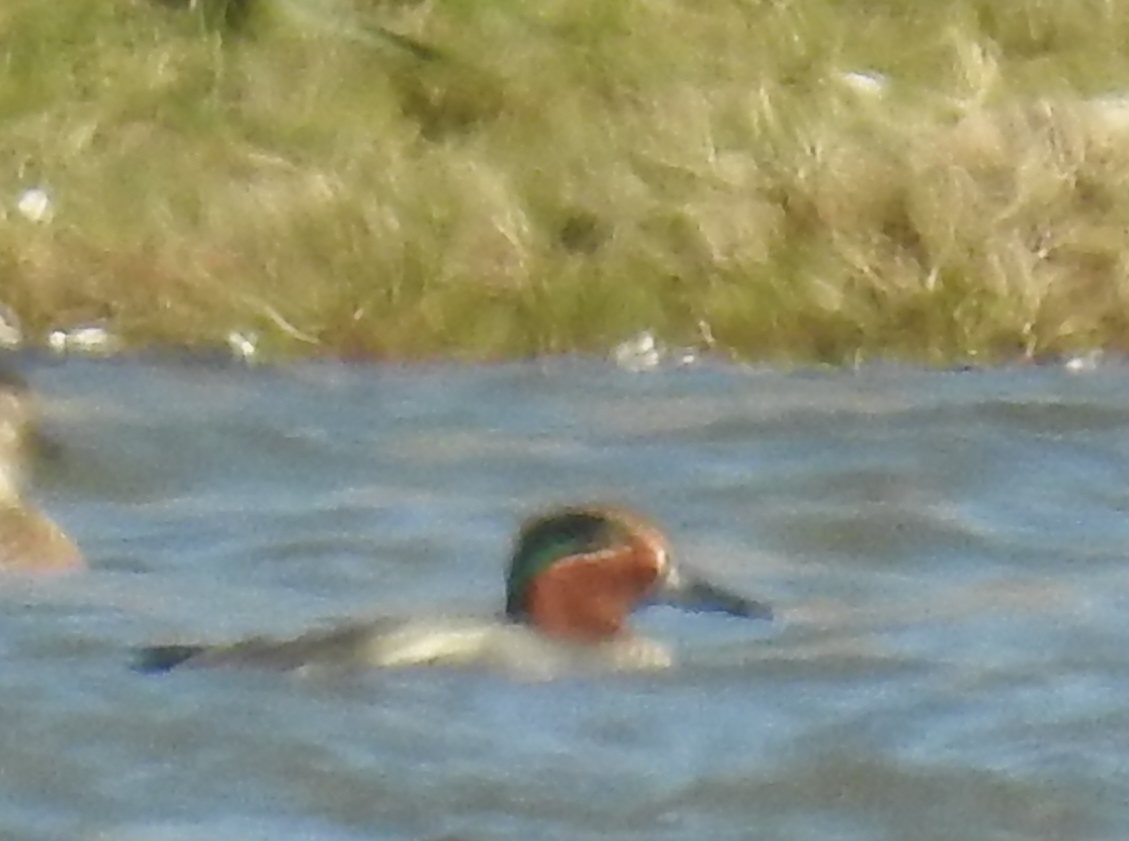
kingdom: Animalia
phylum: Chordata
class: Aves
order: Anseriformes
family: Anatidae
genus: Anas
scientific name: Anas crecca
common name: Eurasian teal
